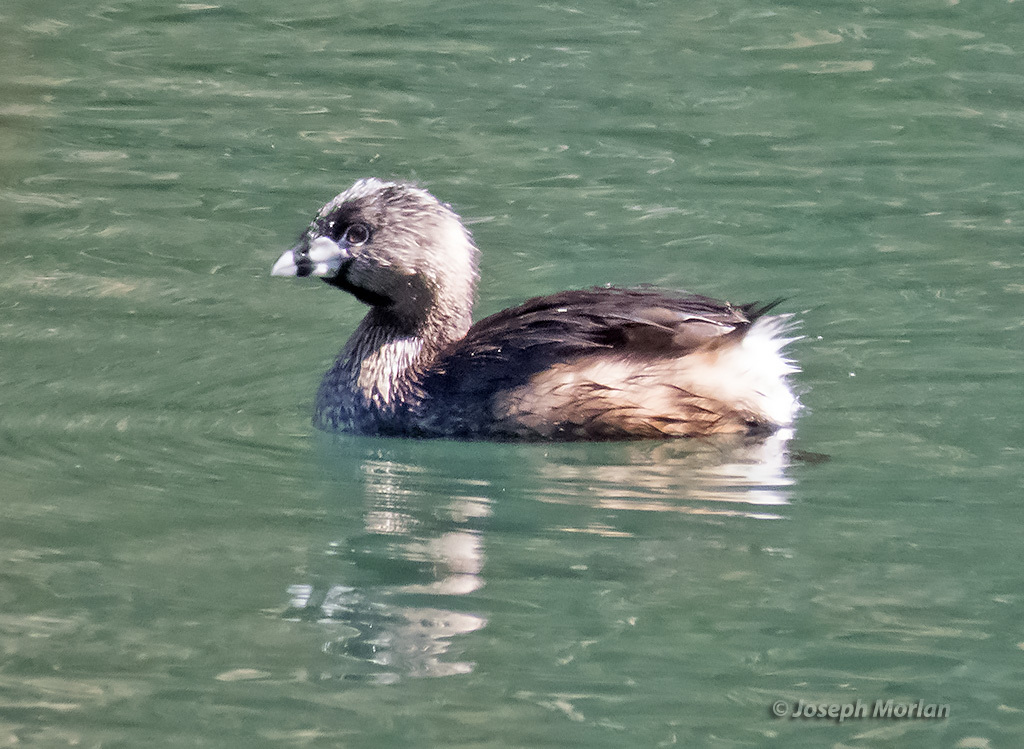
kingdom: Animalia
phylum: Chordata
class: Aves
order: Podicipediformes
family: Podicipedidae
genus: Podilymbus
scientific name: Podilymbus podiceps
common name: Pied-billed grebe
